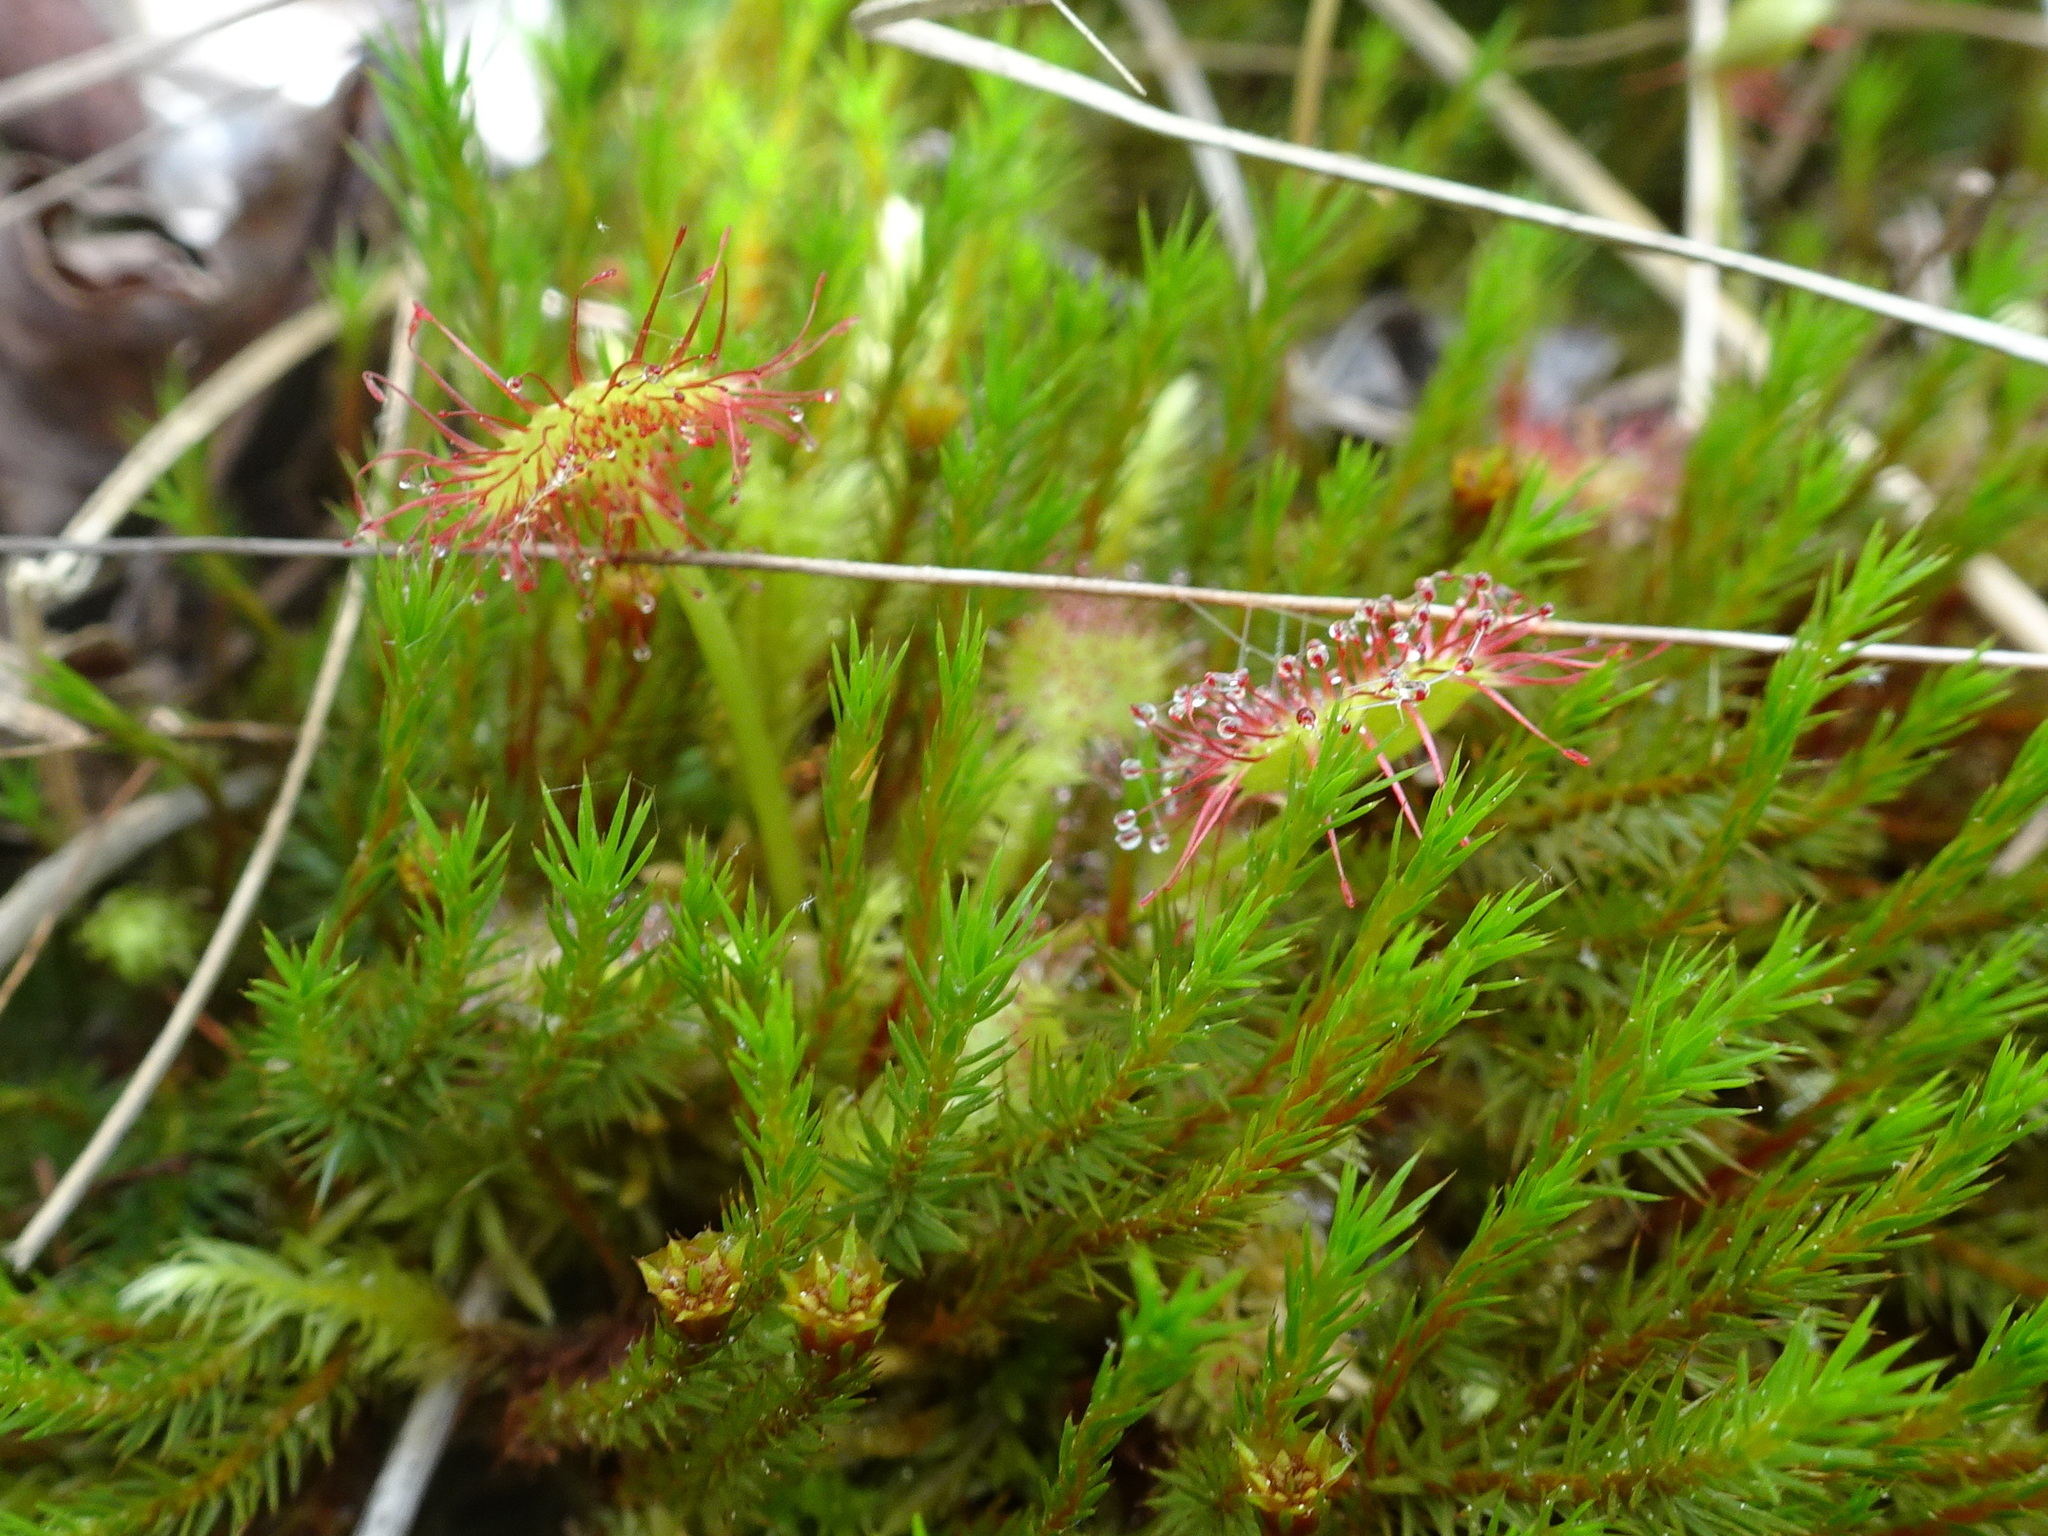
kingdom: Plantae
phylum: Tracheophyta
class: Magnoliopsida
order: Caryophyllales
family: Droseraceae
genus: Drosera
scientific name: Drosera rotundifolia
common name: Round-leaved sundew
